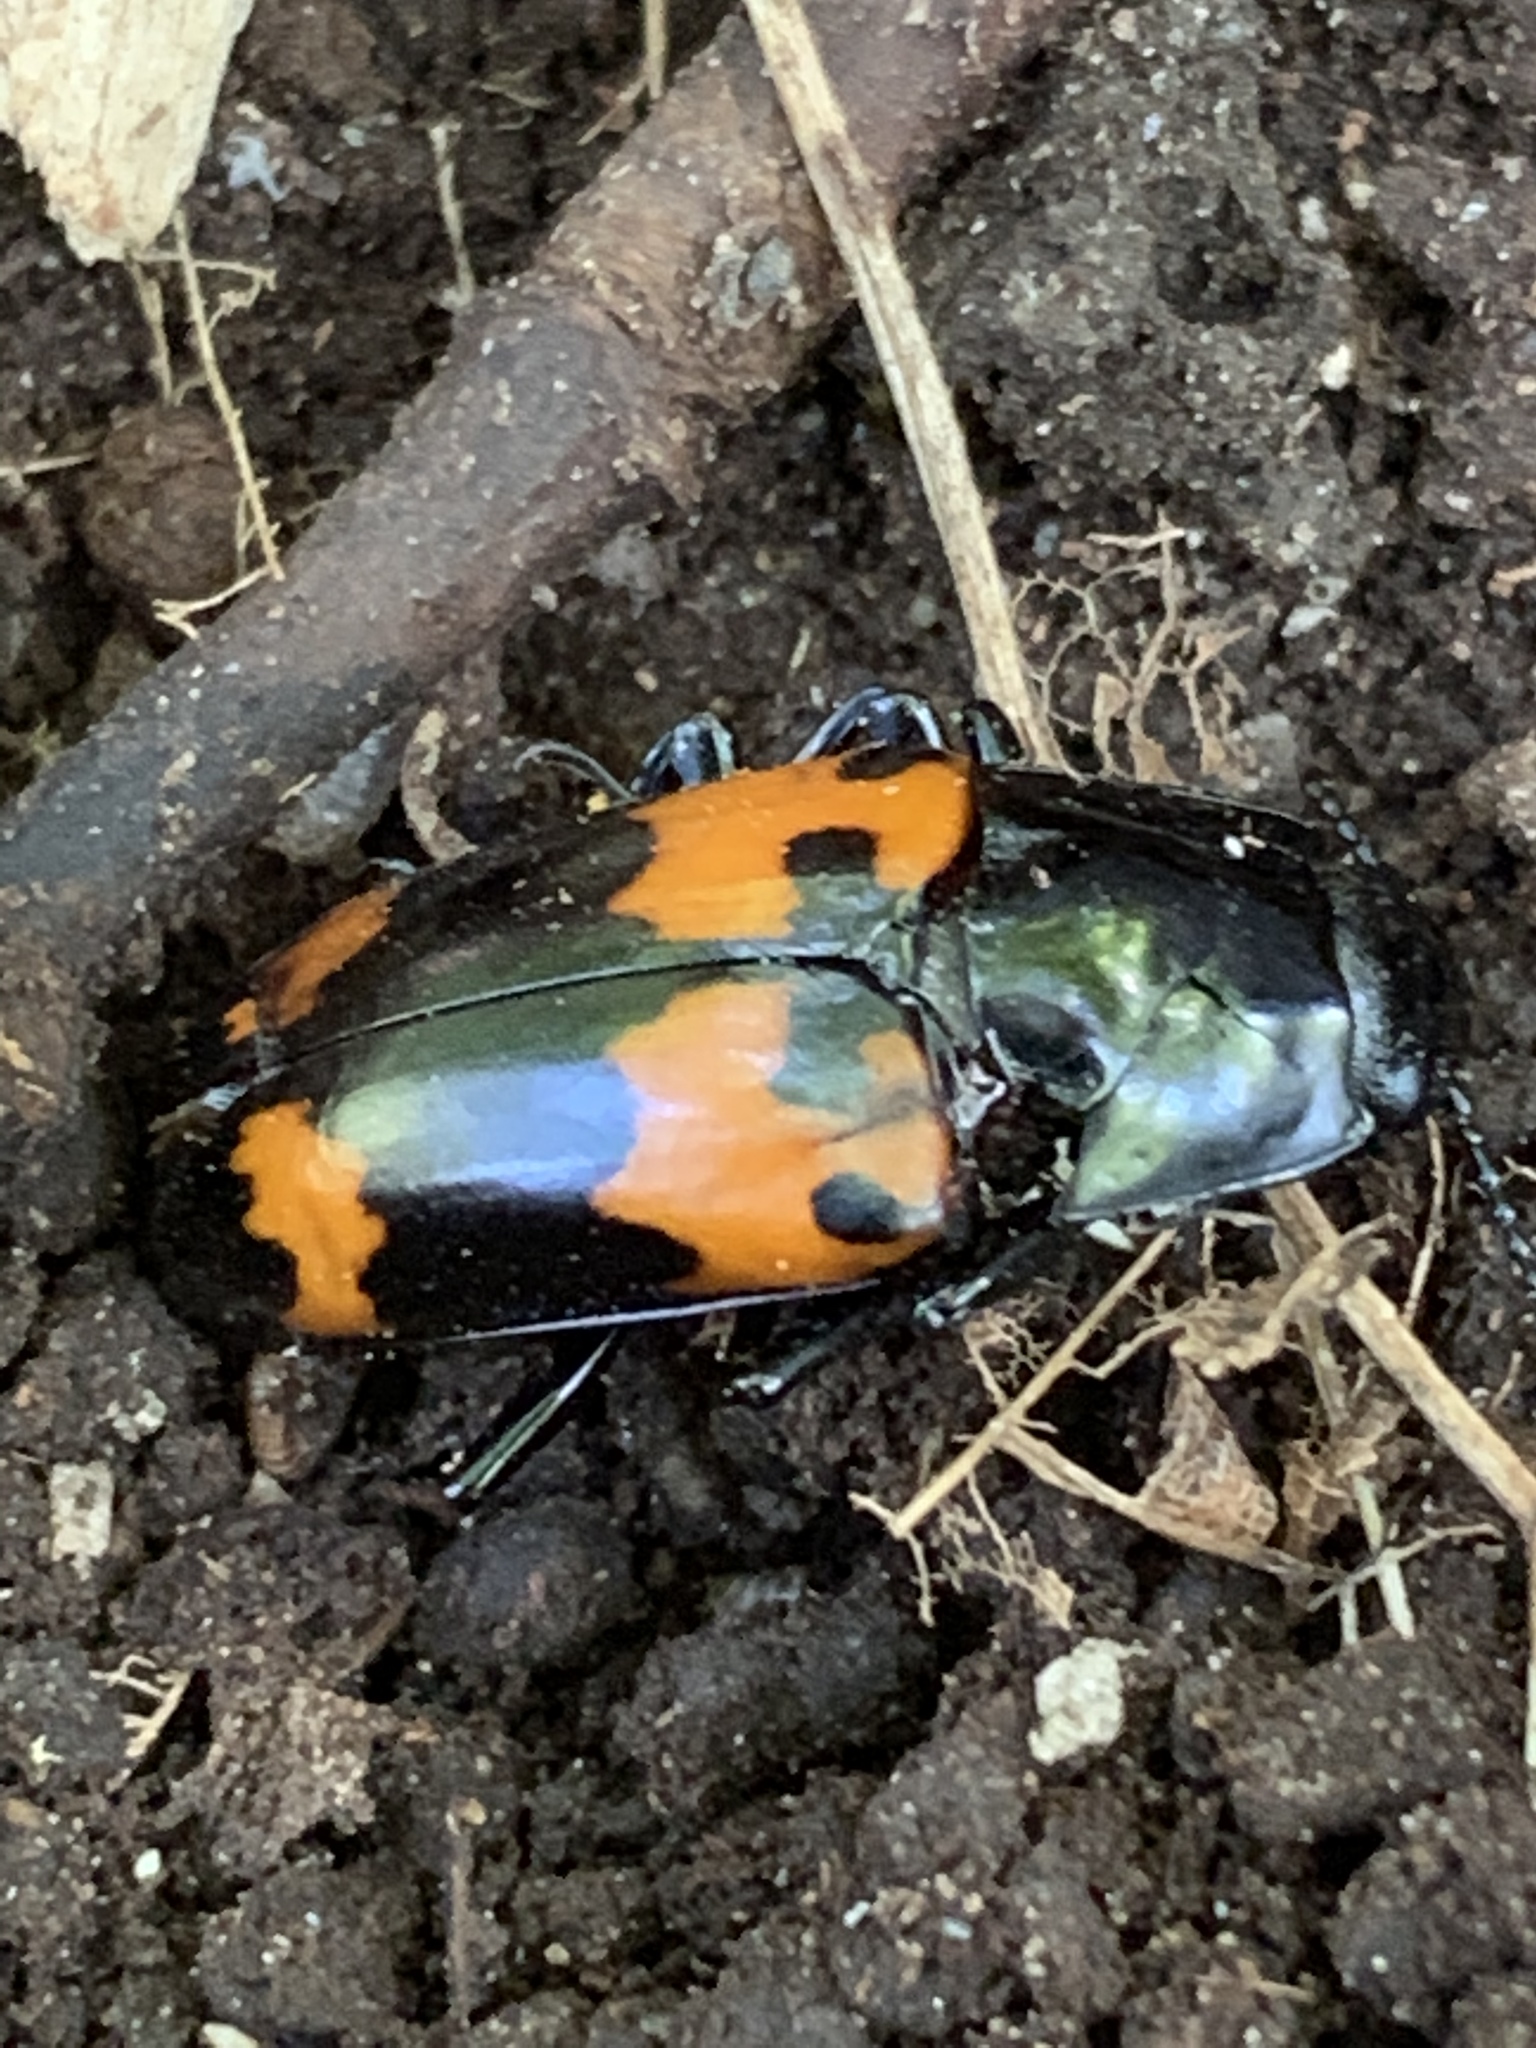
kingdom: Animalia
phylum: Arthropoda
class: Insecta
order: Coleoptera
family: Erotylidae
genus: Megalodacne
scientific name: Megalodacne heros
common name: Pleasing fungus beetle
